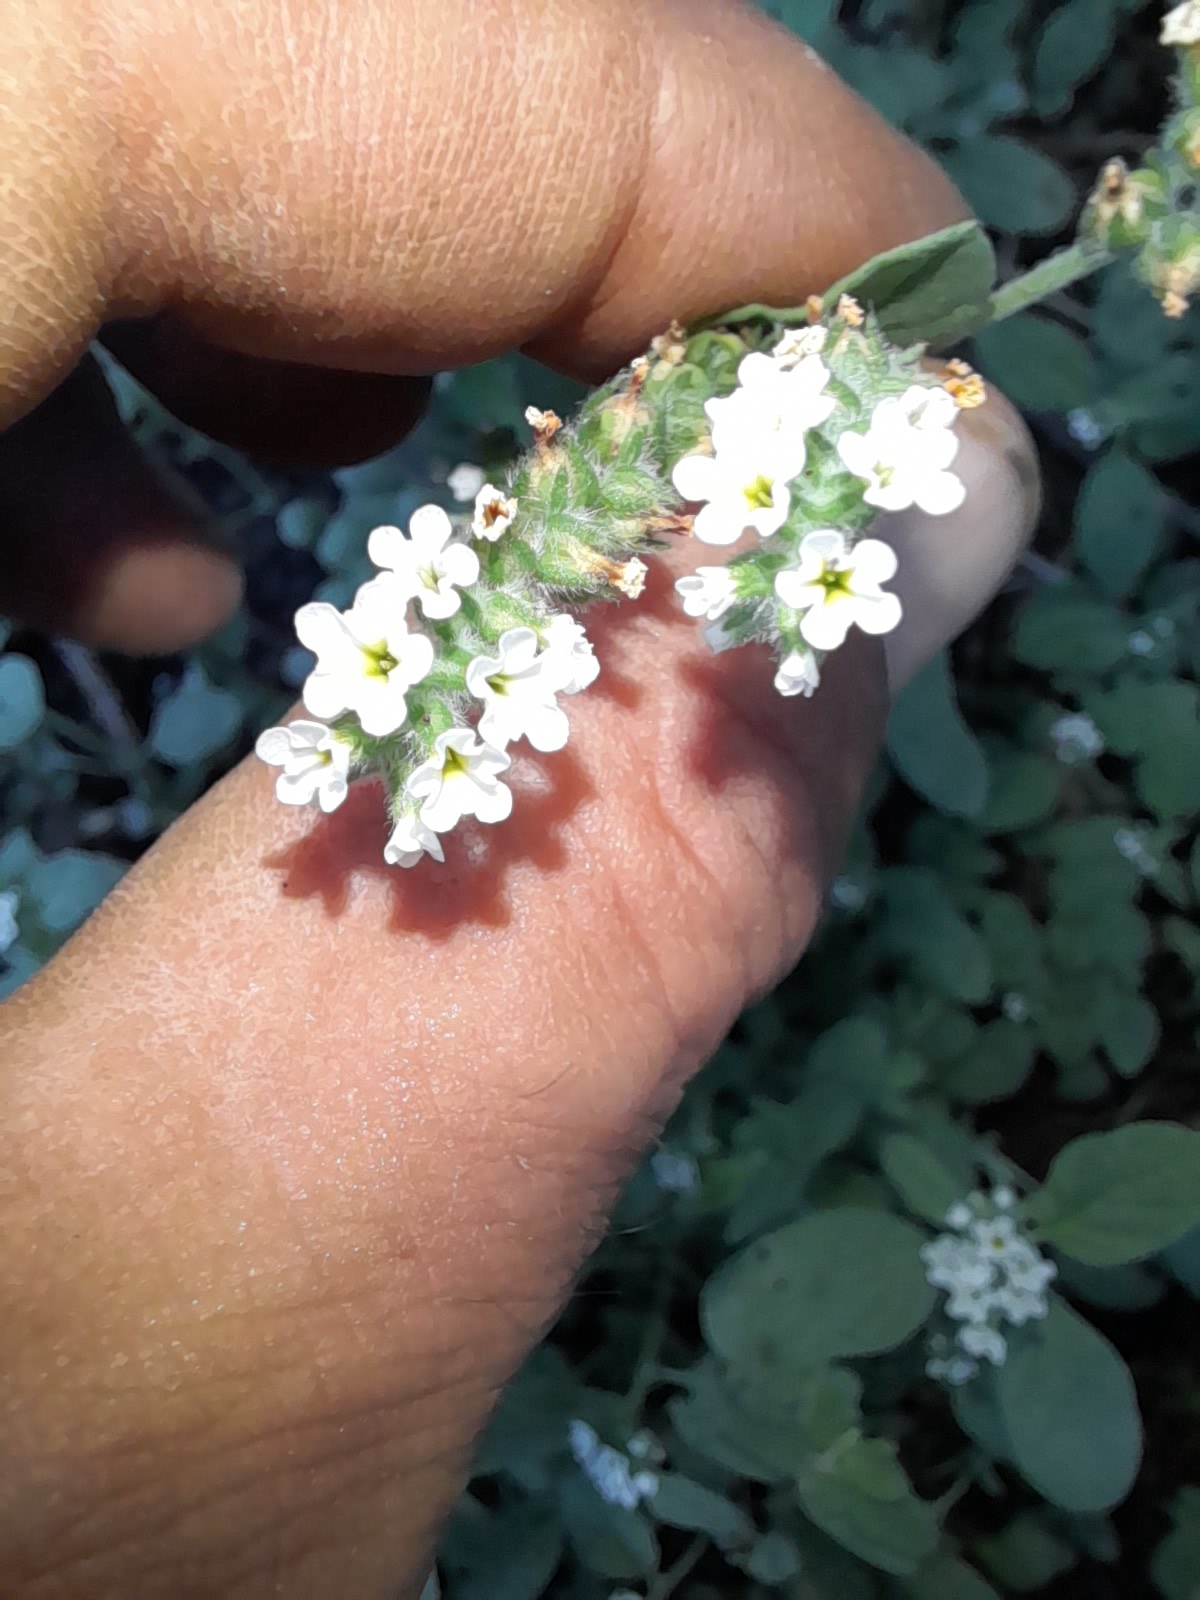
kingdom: Plantae
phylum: Tracheophyta
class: Magnoliopsida
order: Boraginales
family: Heliotropiaceae
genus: Heliotropium
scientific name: Heliotropium europaeum
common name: European heliotrope
